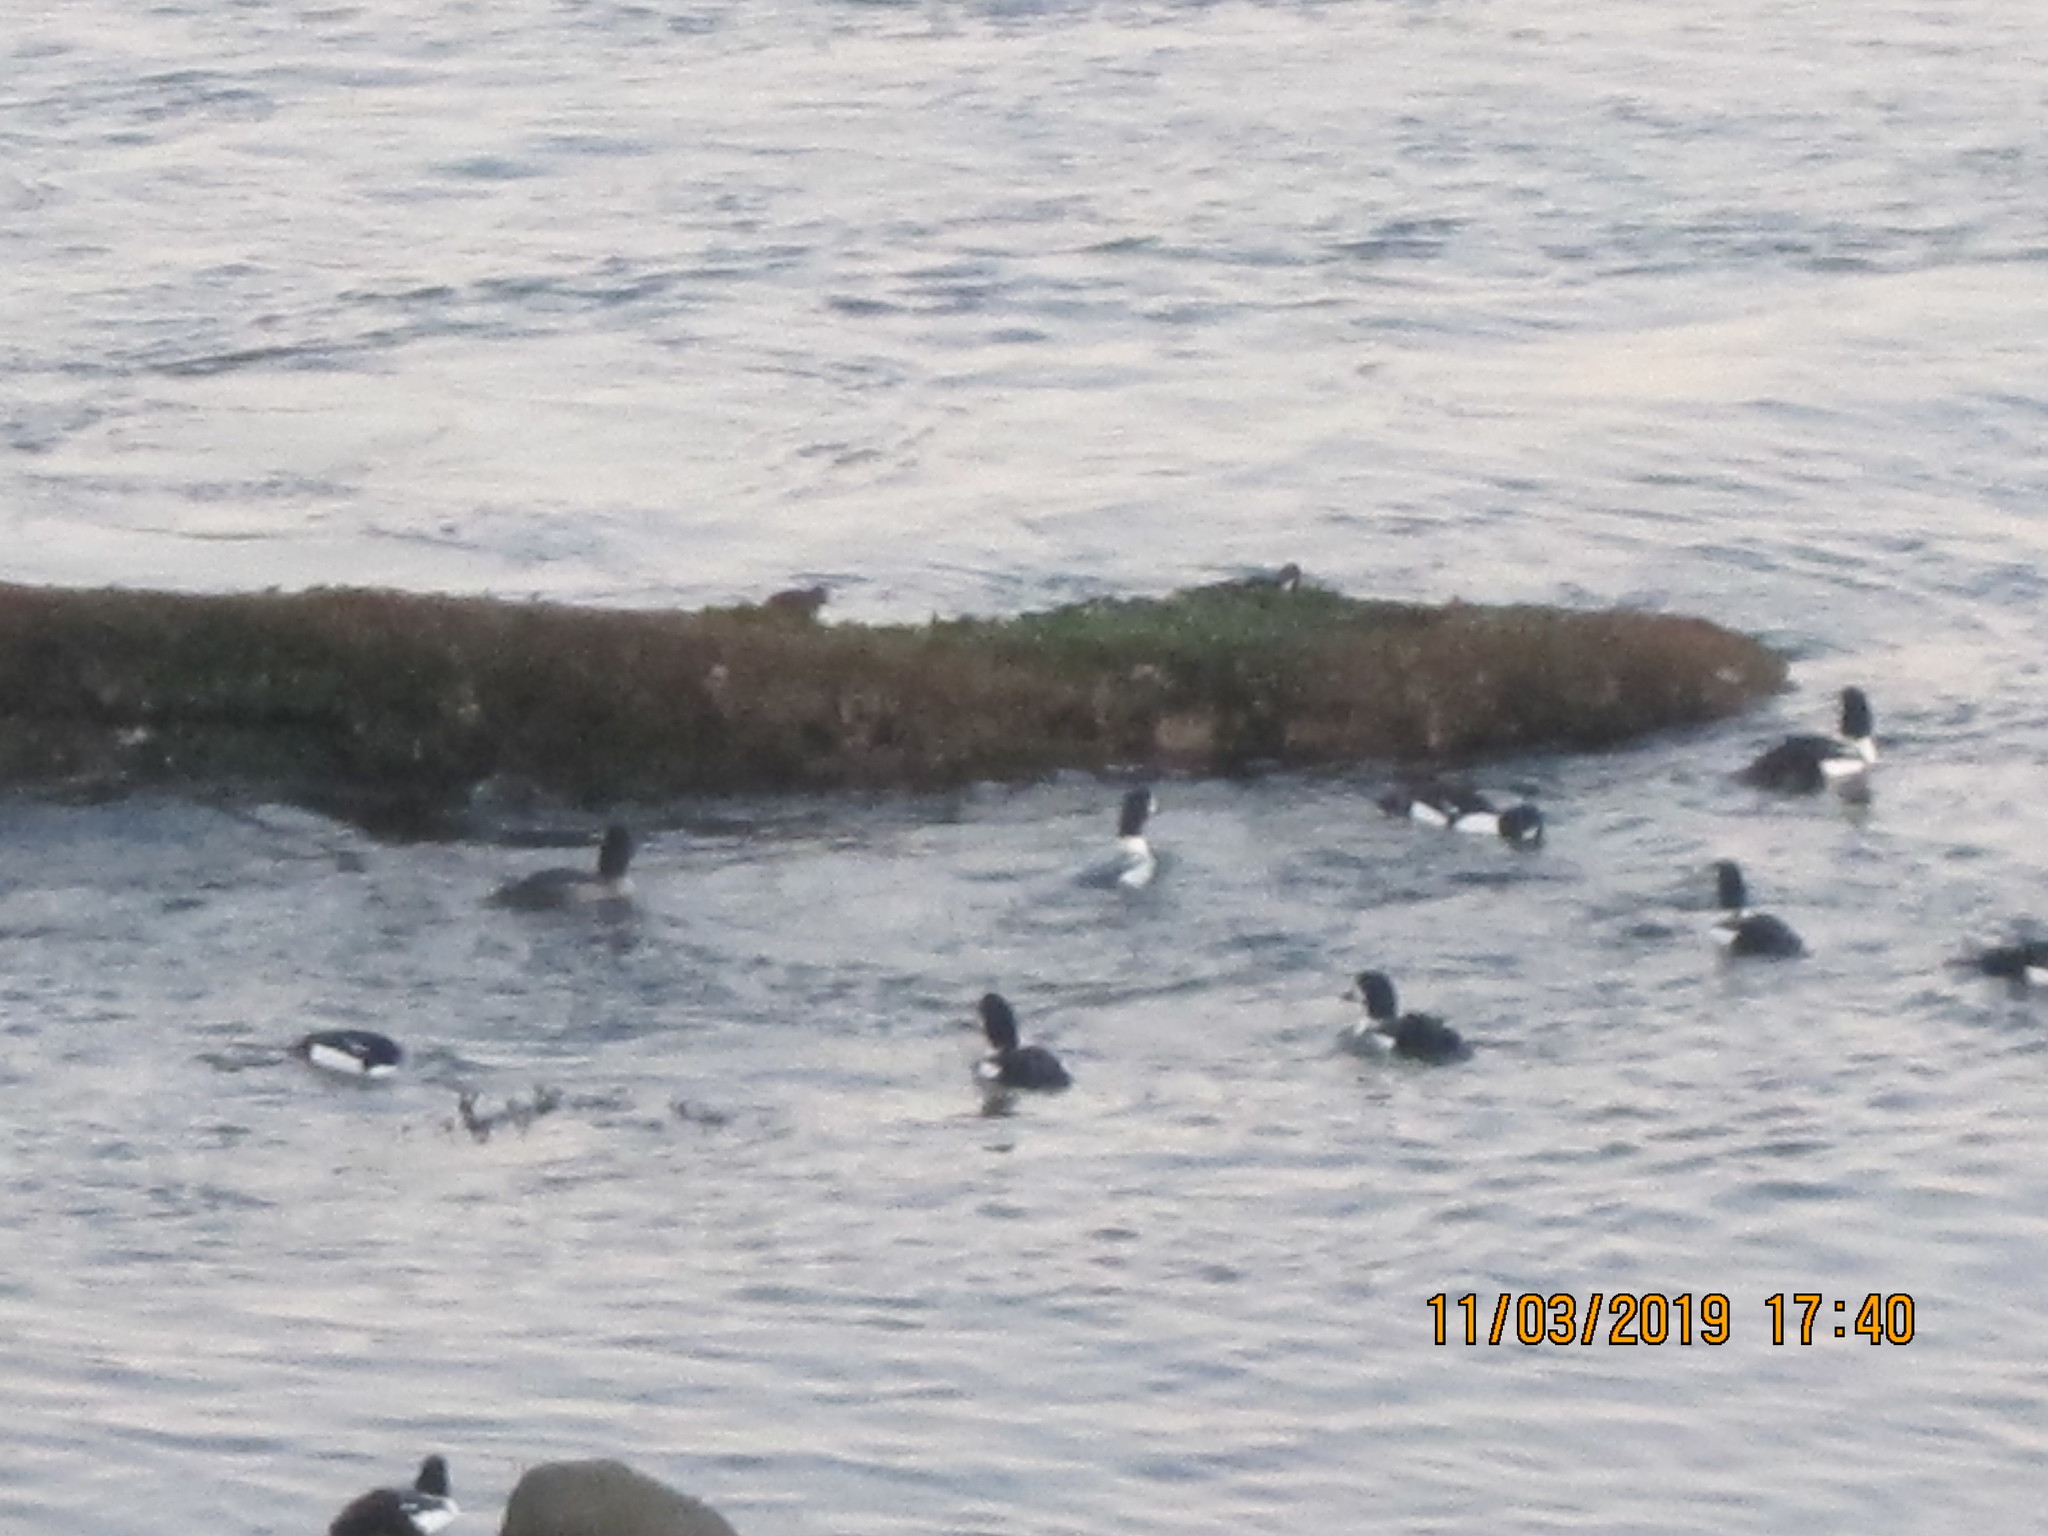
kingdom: Animalia
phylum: Chordata
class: Aves
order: Anseriformes
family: Anatidae
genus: Bucephala
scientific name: Bucephala islandica
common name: Barrow's goldeneye
